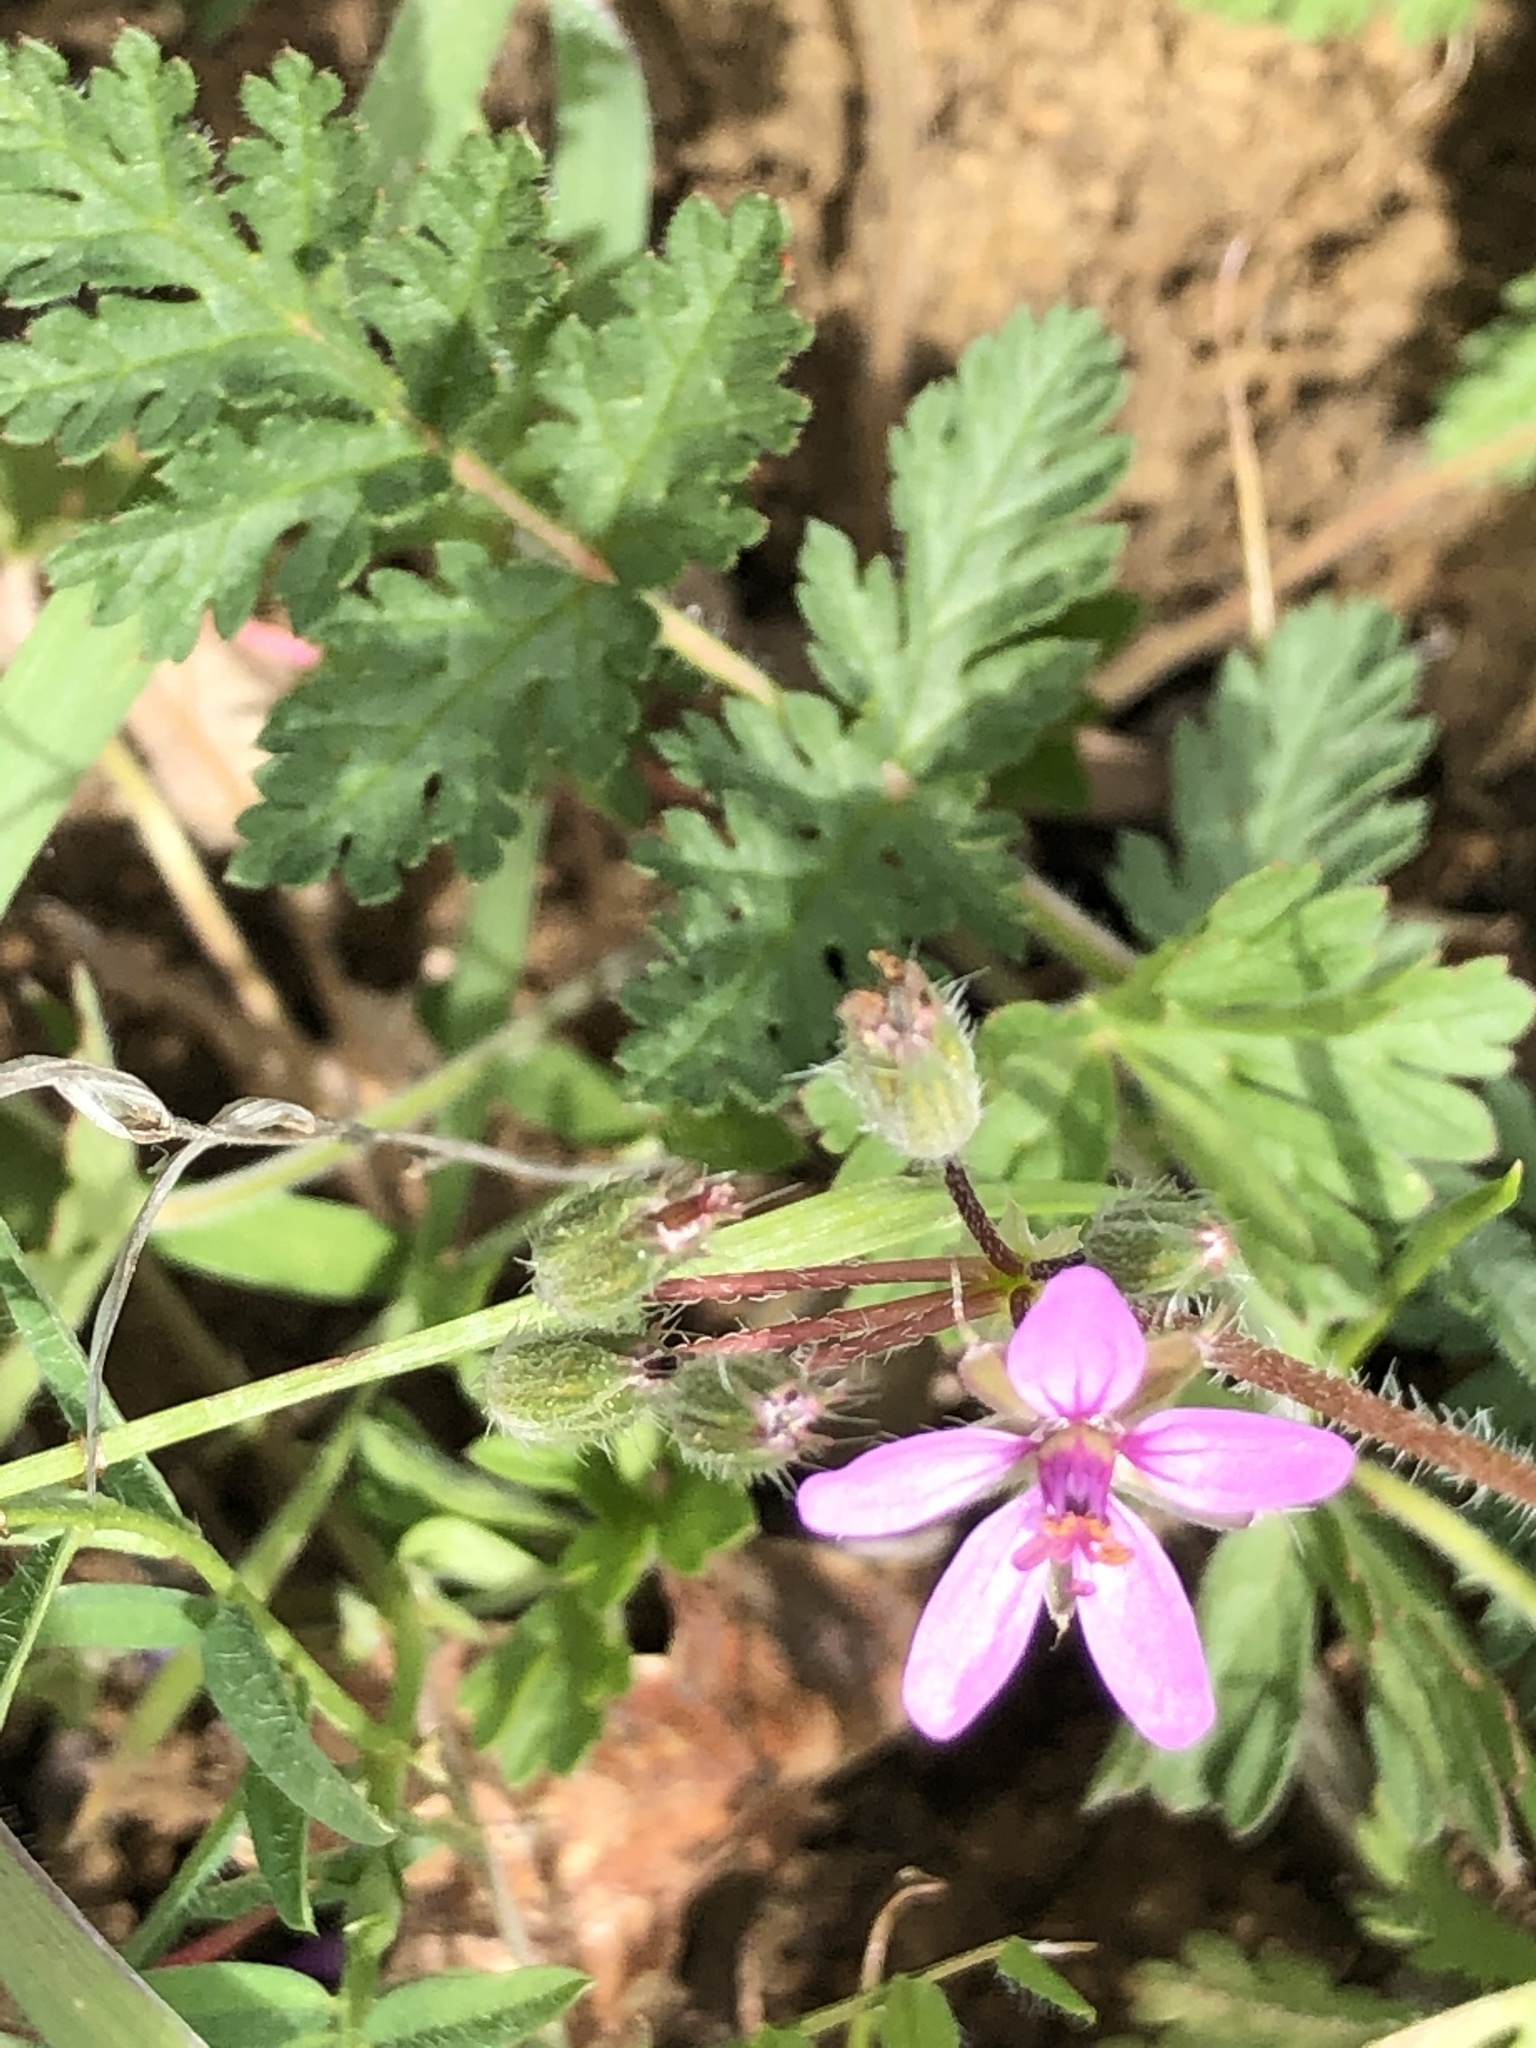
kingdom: Plantae
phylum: Tracheophyta
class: Magnoliopsida
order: Geraniales
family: Geraniaceae
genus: Erodium
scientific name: Erodium cicutarium
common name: Common stork's-bill
